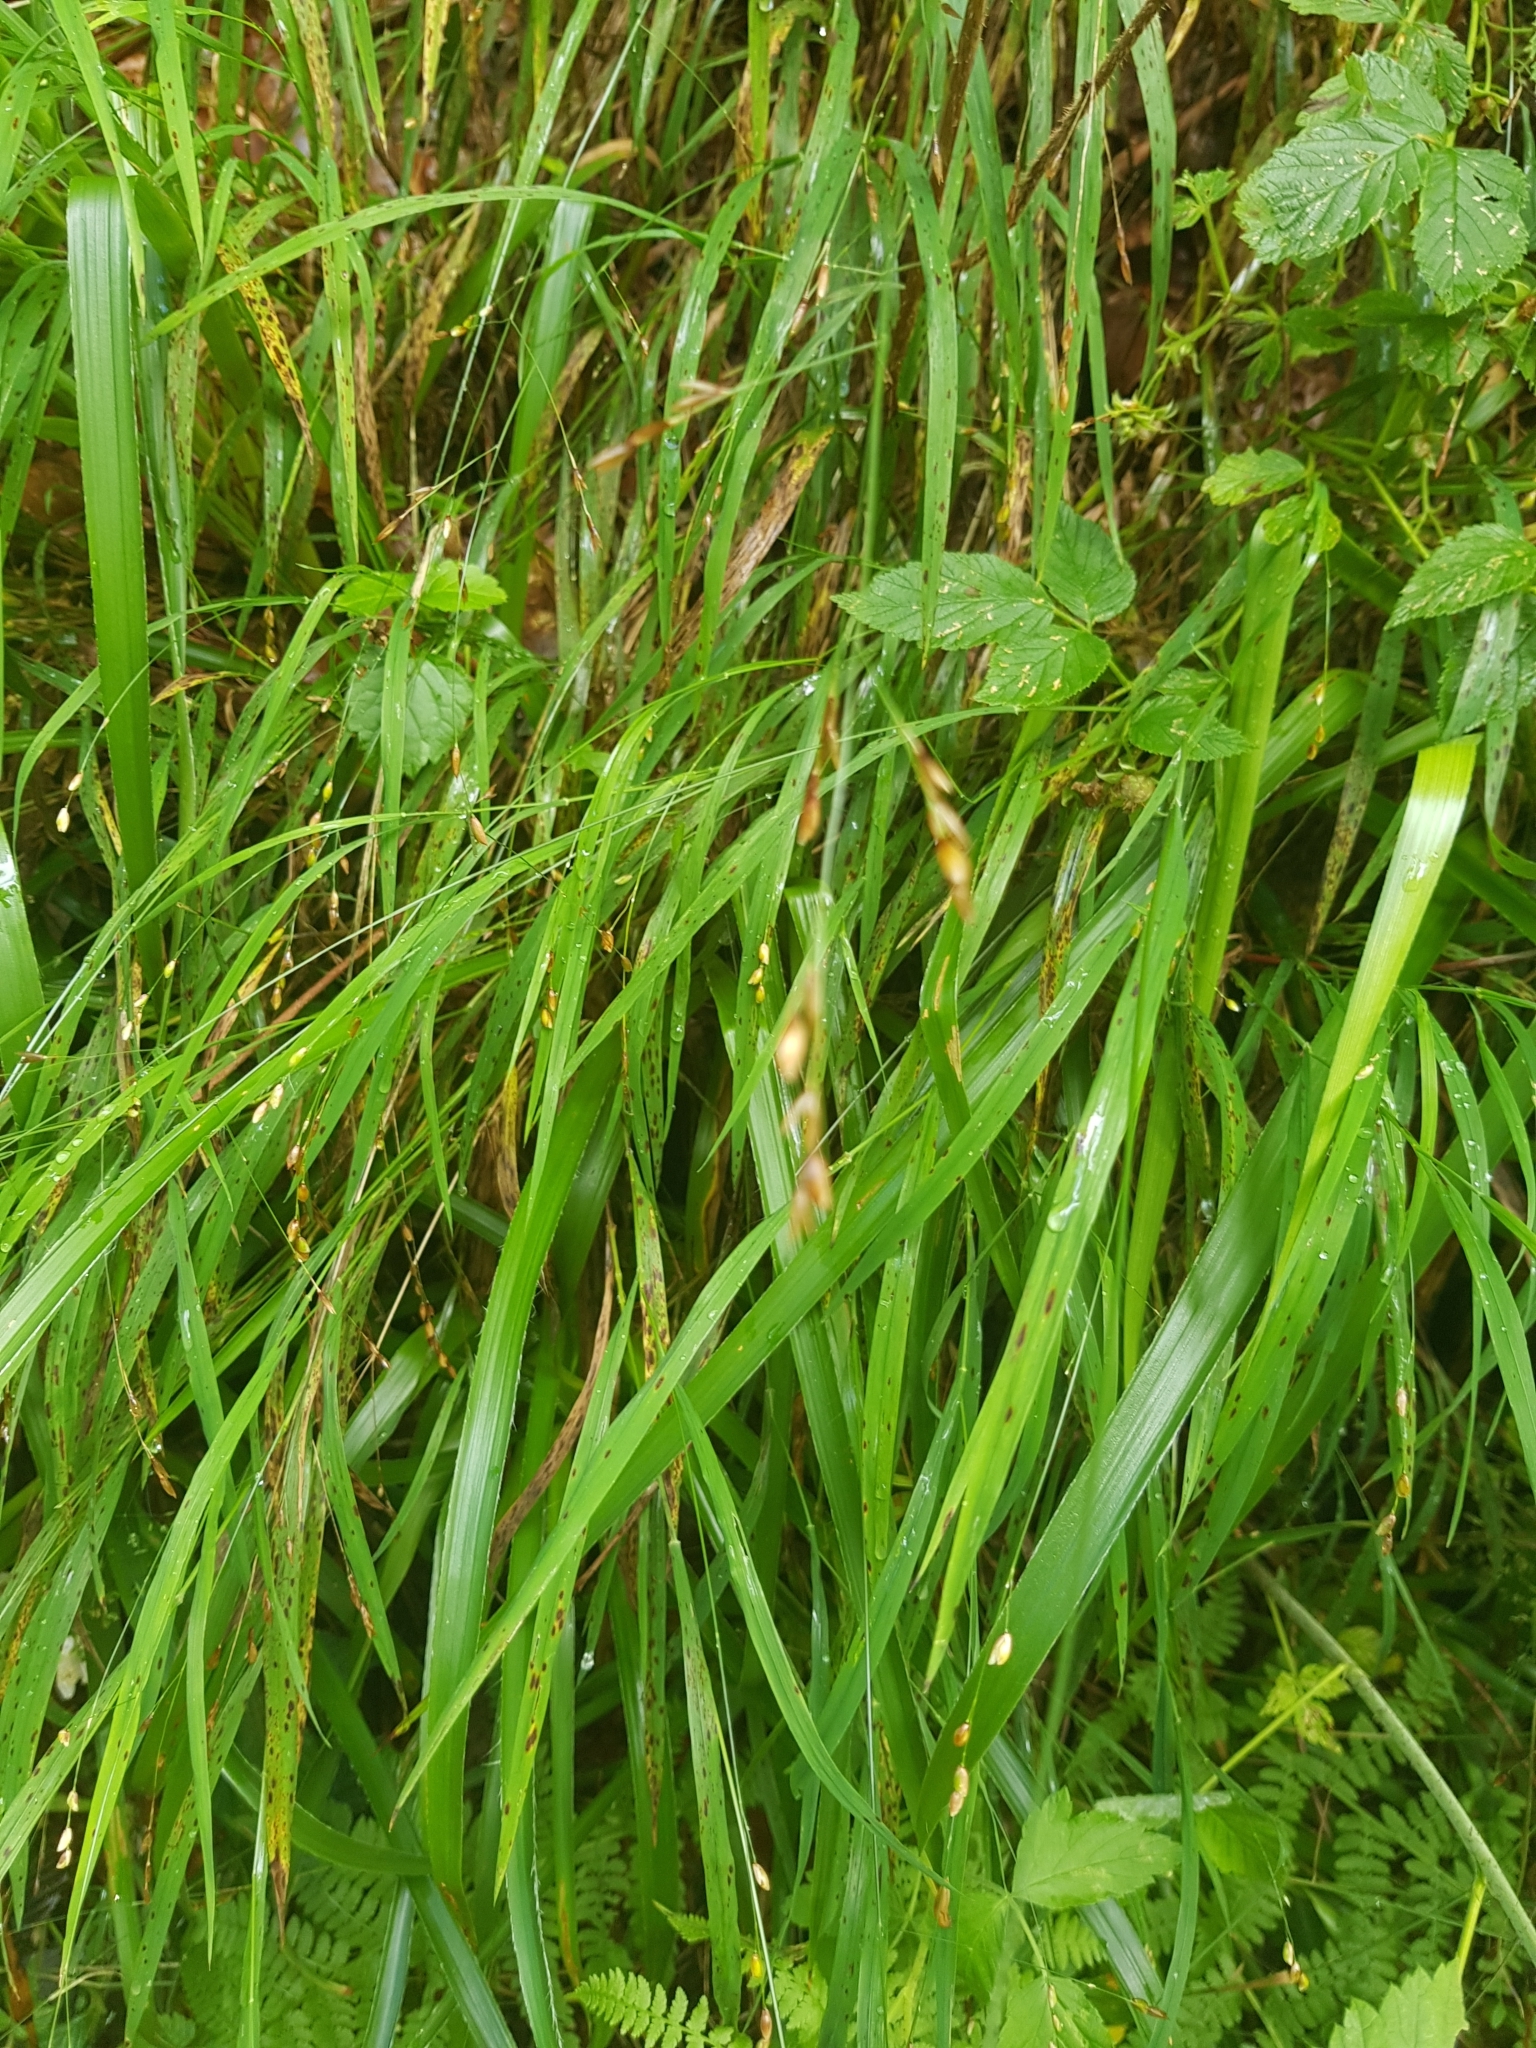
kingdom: Plantae
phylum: Tracheophyta
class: Liliopsida
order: Poales
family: Poaceae
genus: Melica
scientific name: Melica uniflora
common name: Wood melick
